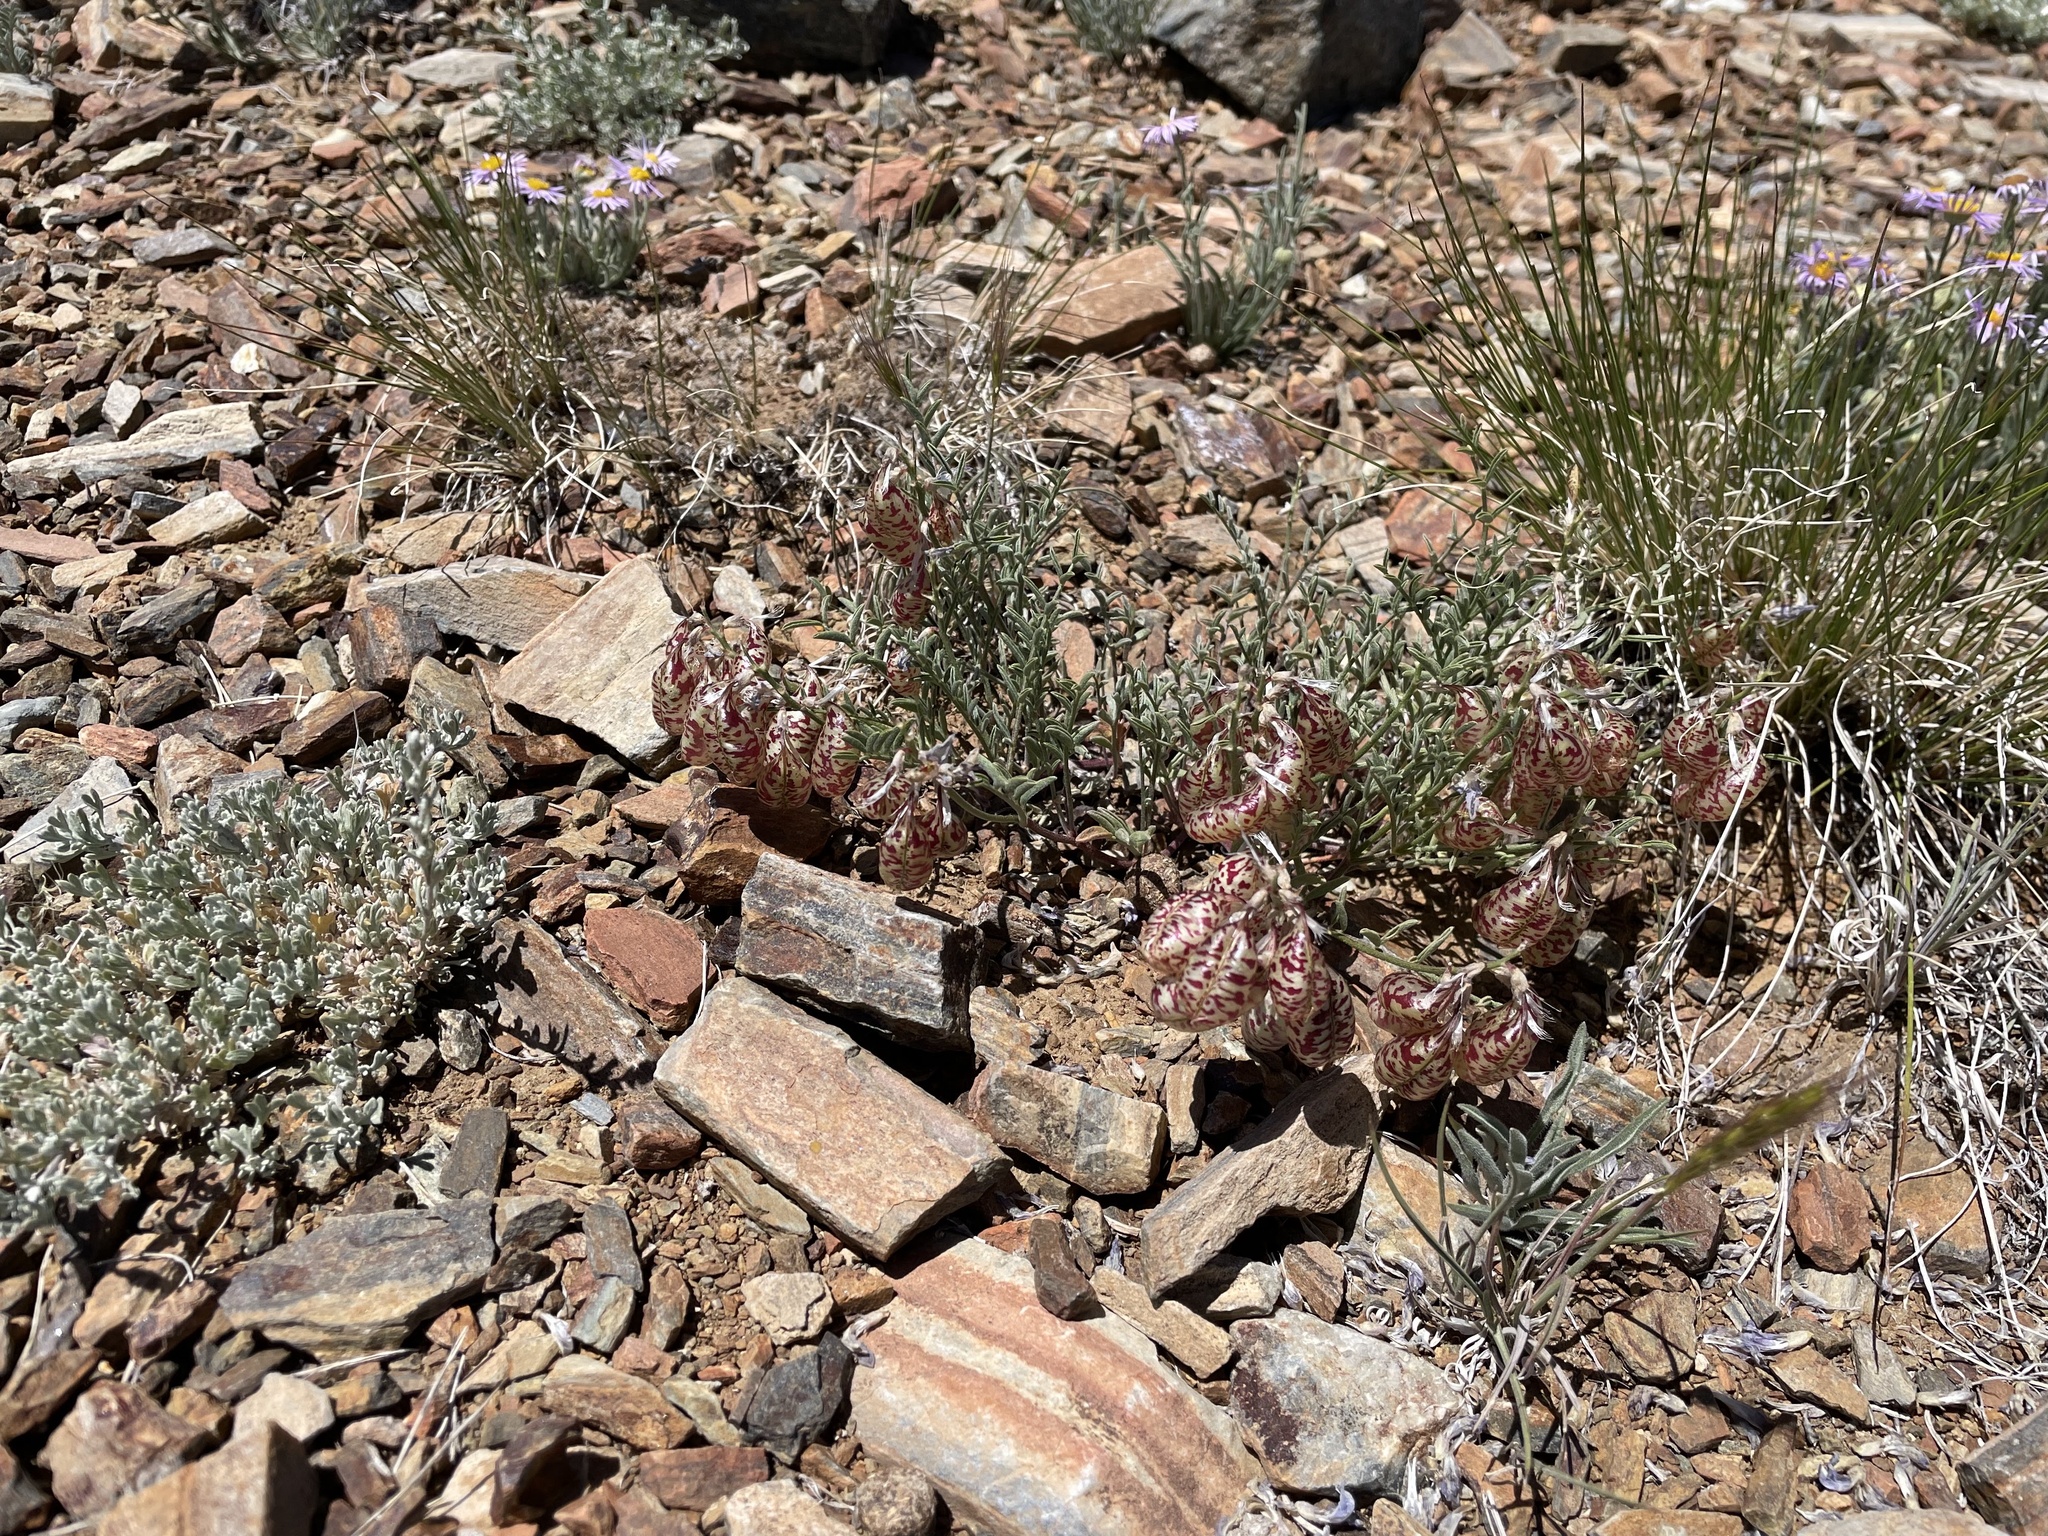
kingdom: Plantae
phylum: Tracheophyta
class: Magnoliopsida
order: Fabales
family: Fabaceae
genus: Astragalus
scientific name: Astragalus whitneyi
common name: Balloonpod milkvetch
